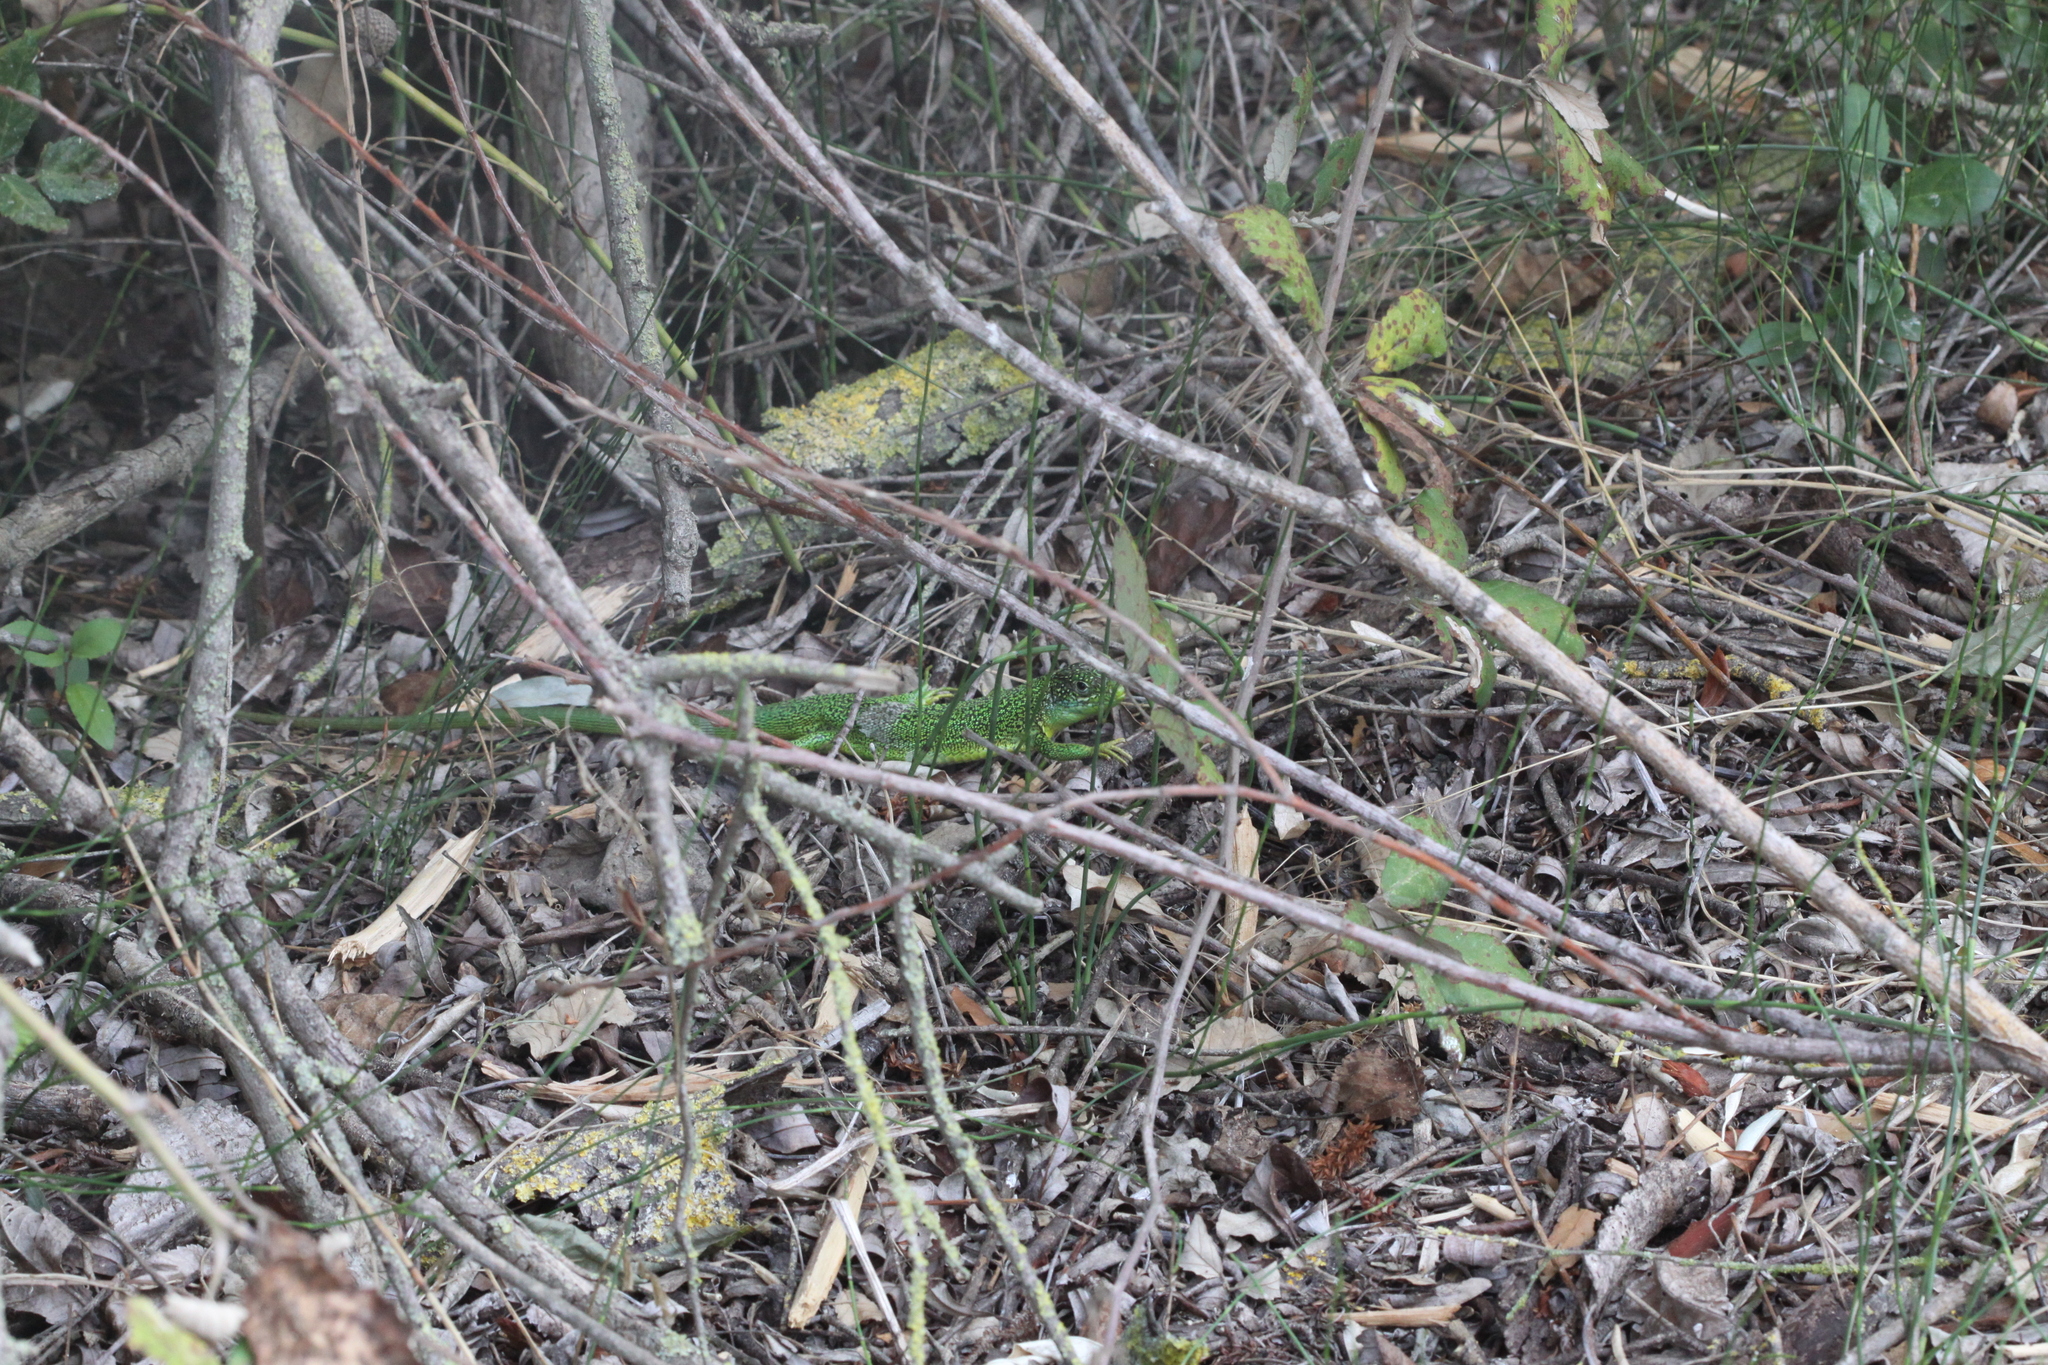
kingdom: Animalia
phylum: Chordata
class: Squamata
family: Lacertidae
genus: Lacerta
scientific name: Lacerta bilineata
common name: Western green lizard
